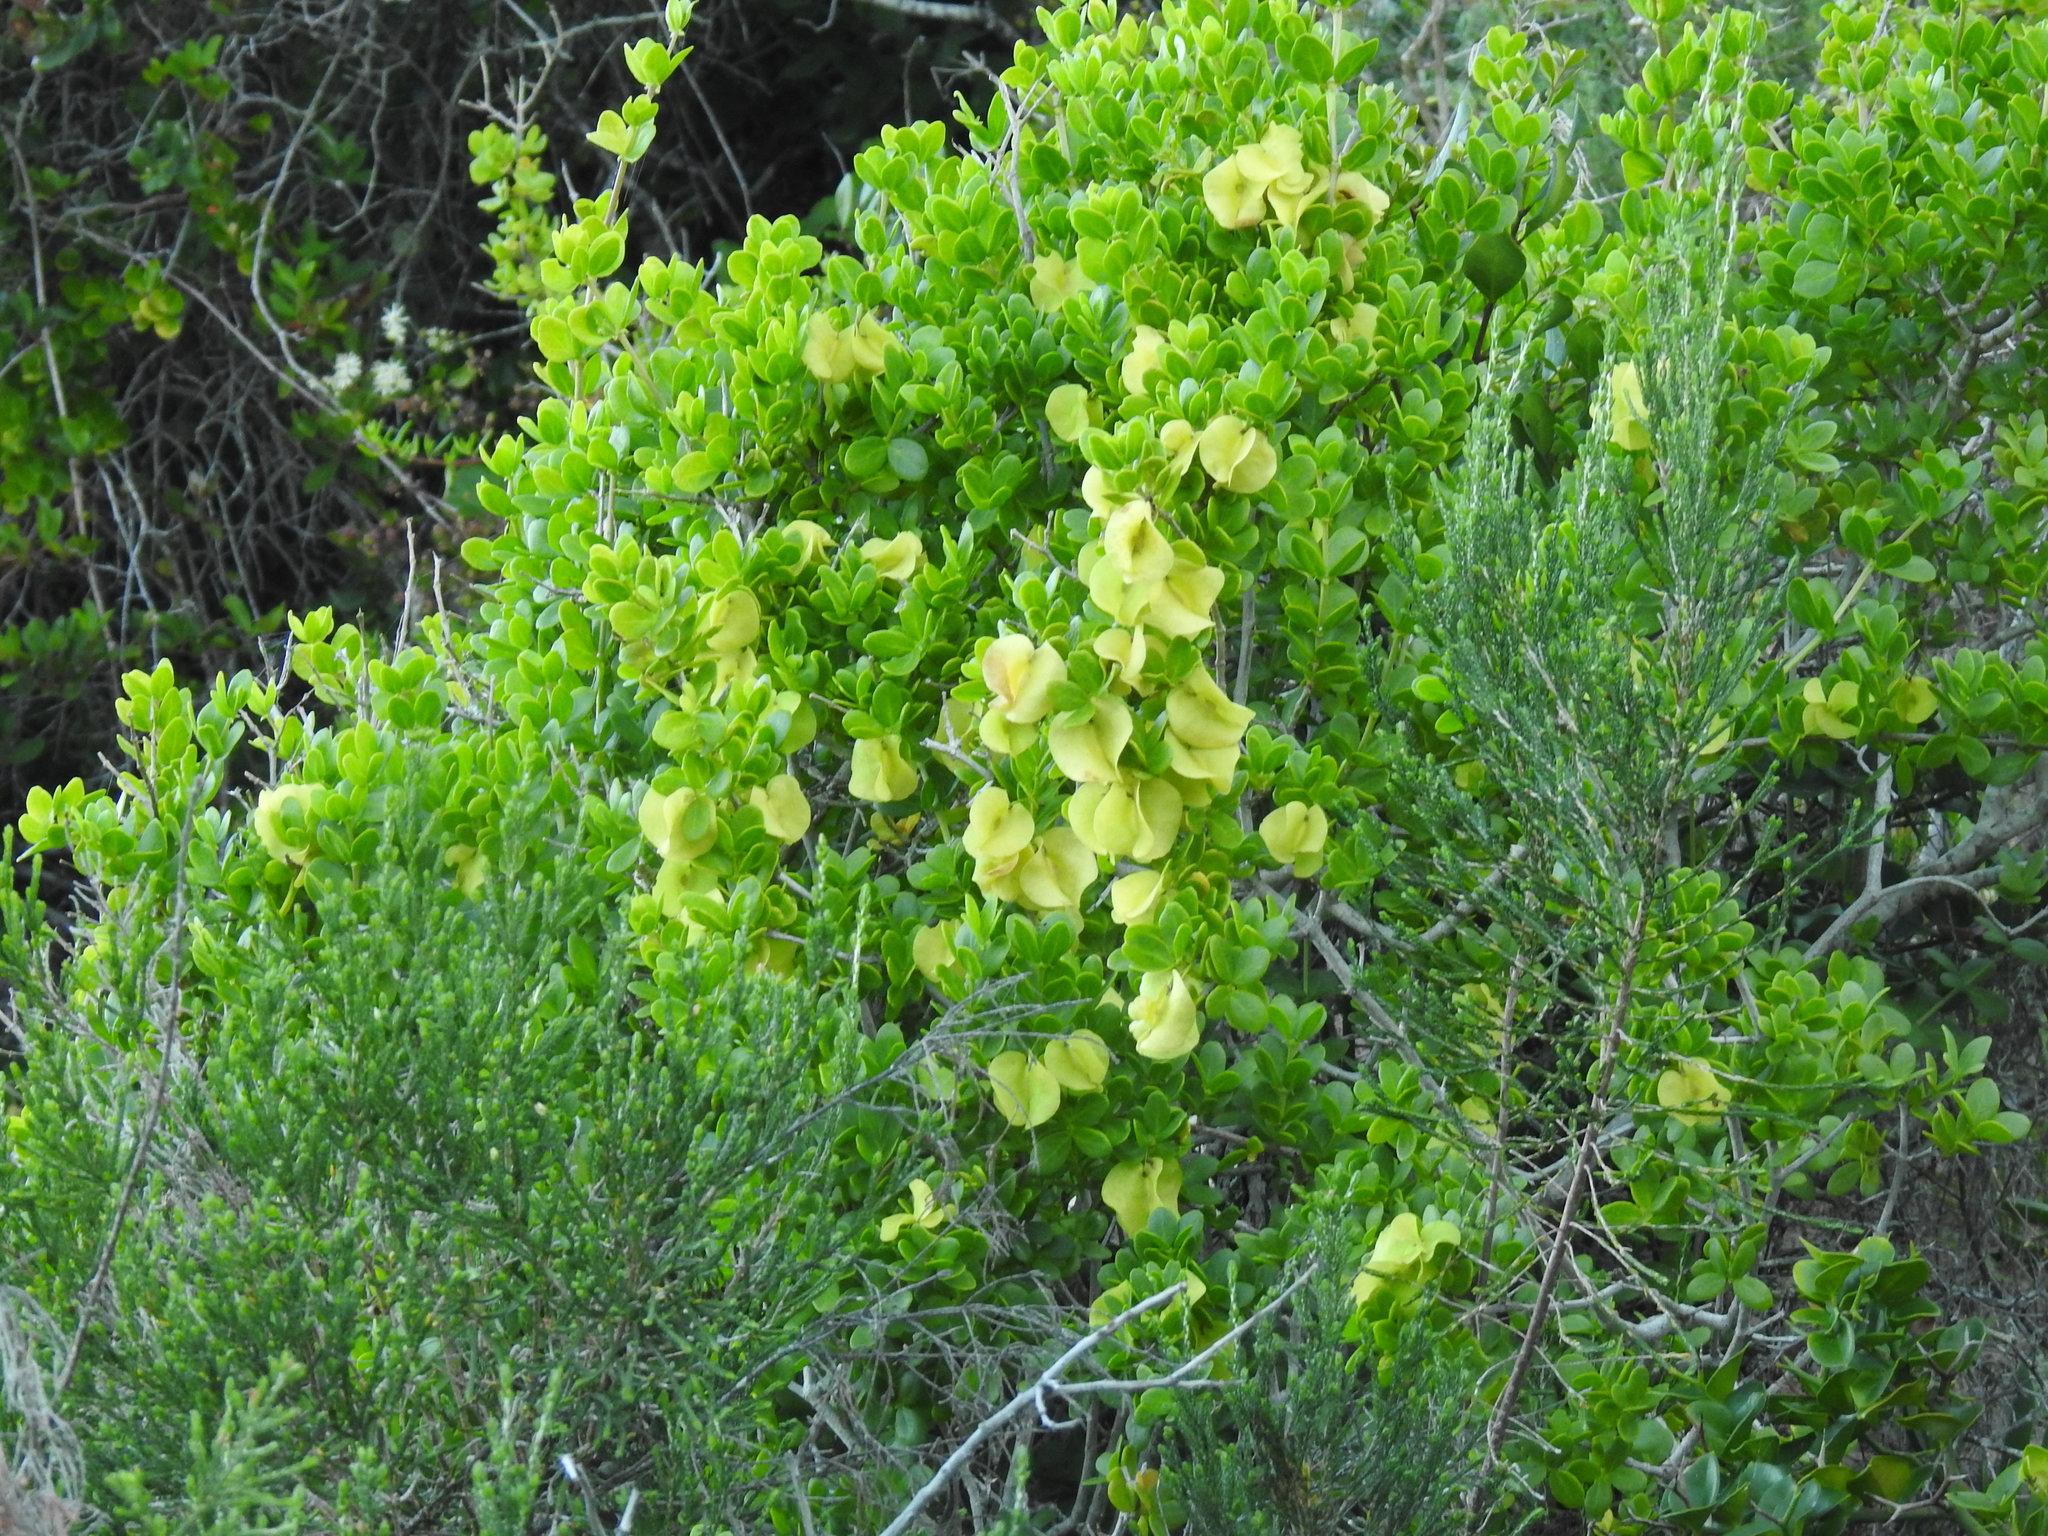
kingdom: Plantae
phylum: Tracheophyta
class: Magnoliopsida
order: Zygophyllales
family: Zygophyllaceae
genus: Roepera
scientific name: Roepera morgsana
